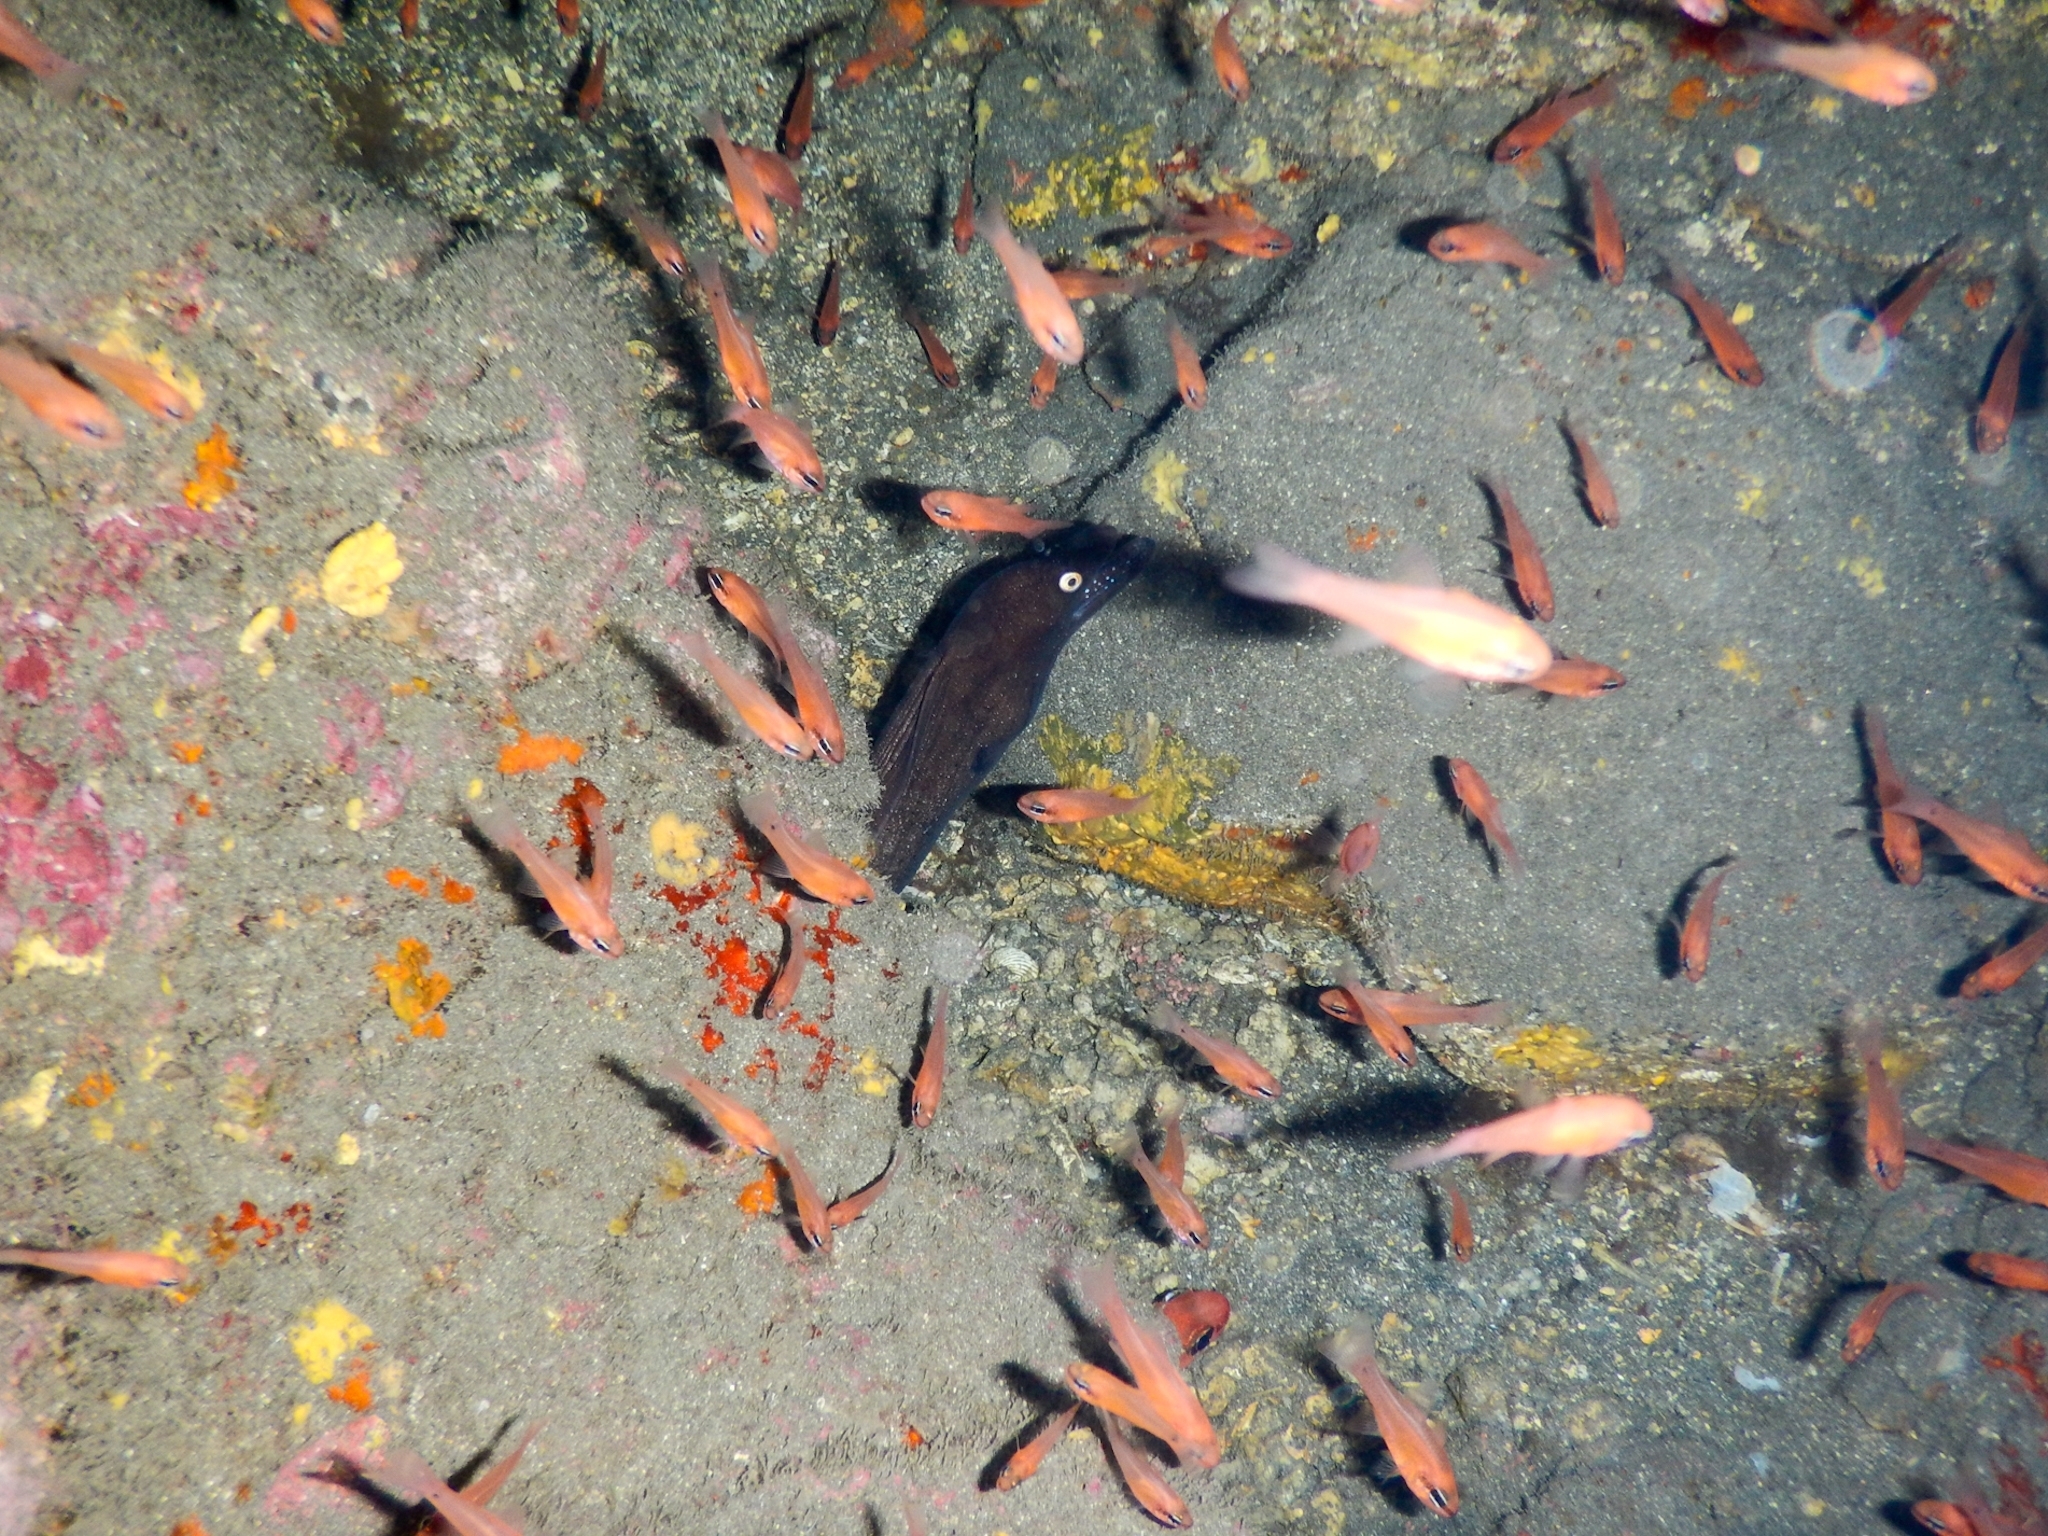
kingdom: Animalia
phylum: Chordata
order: Anguilliformes
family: Muraenidae
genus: Muraena
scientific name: Muraena augusti
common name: Mediterranean moray
